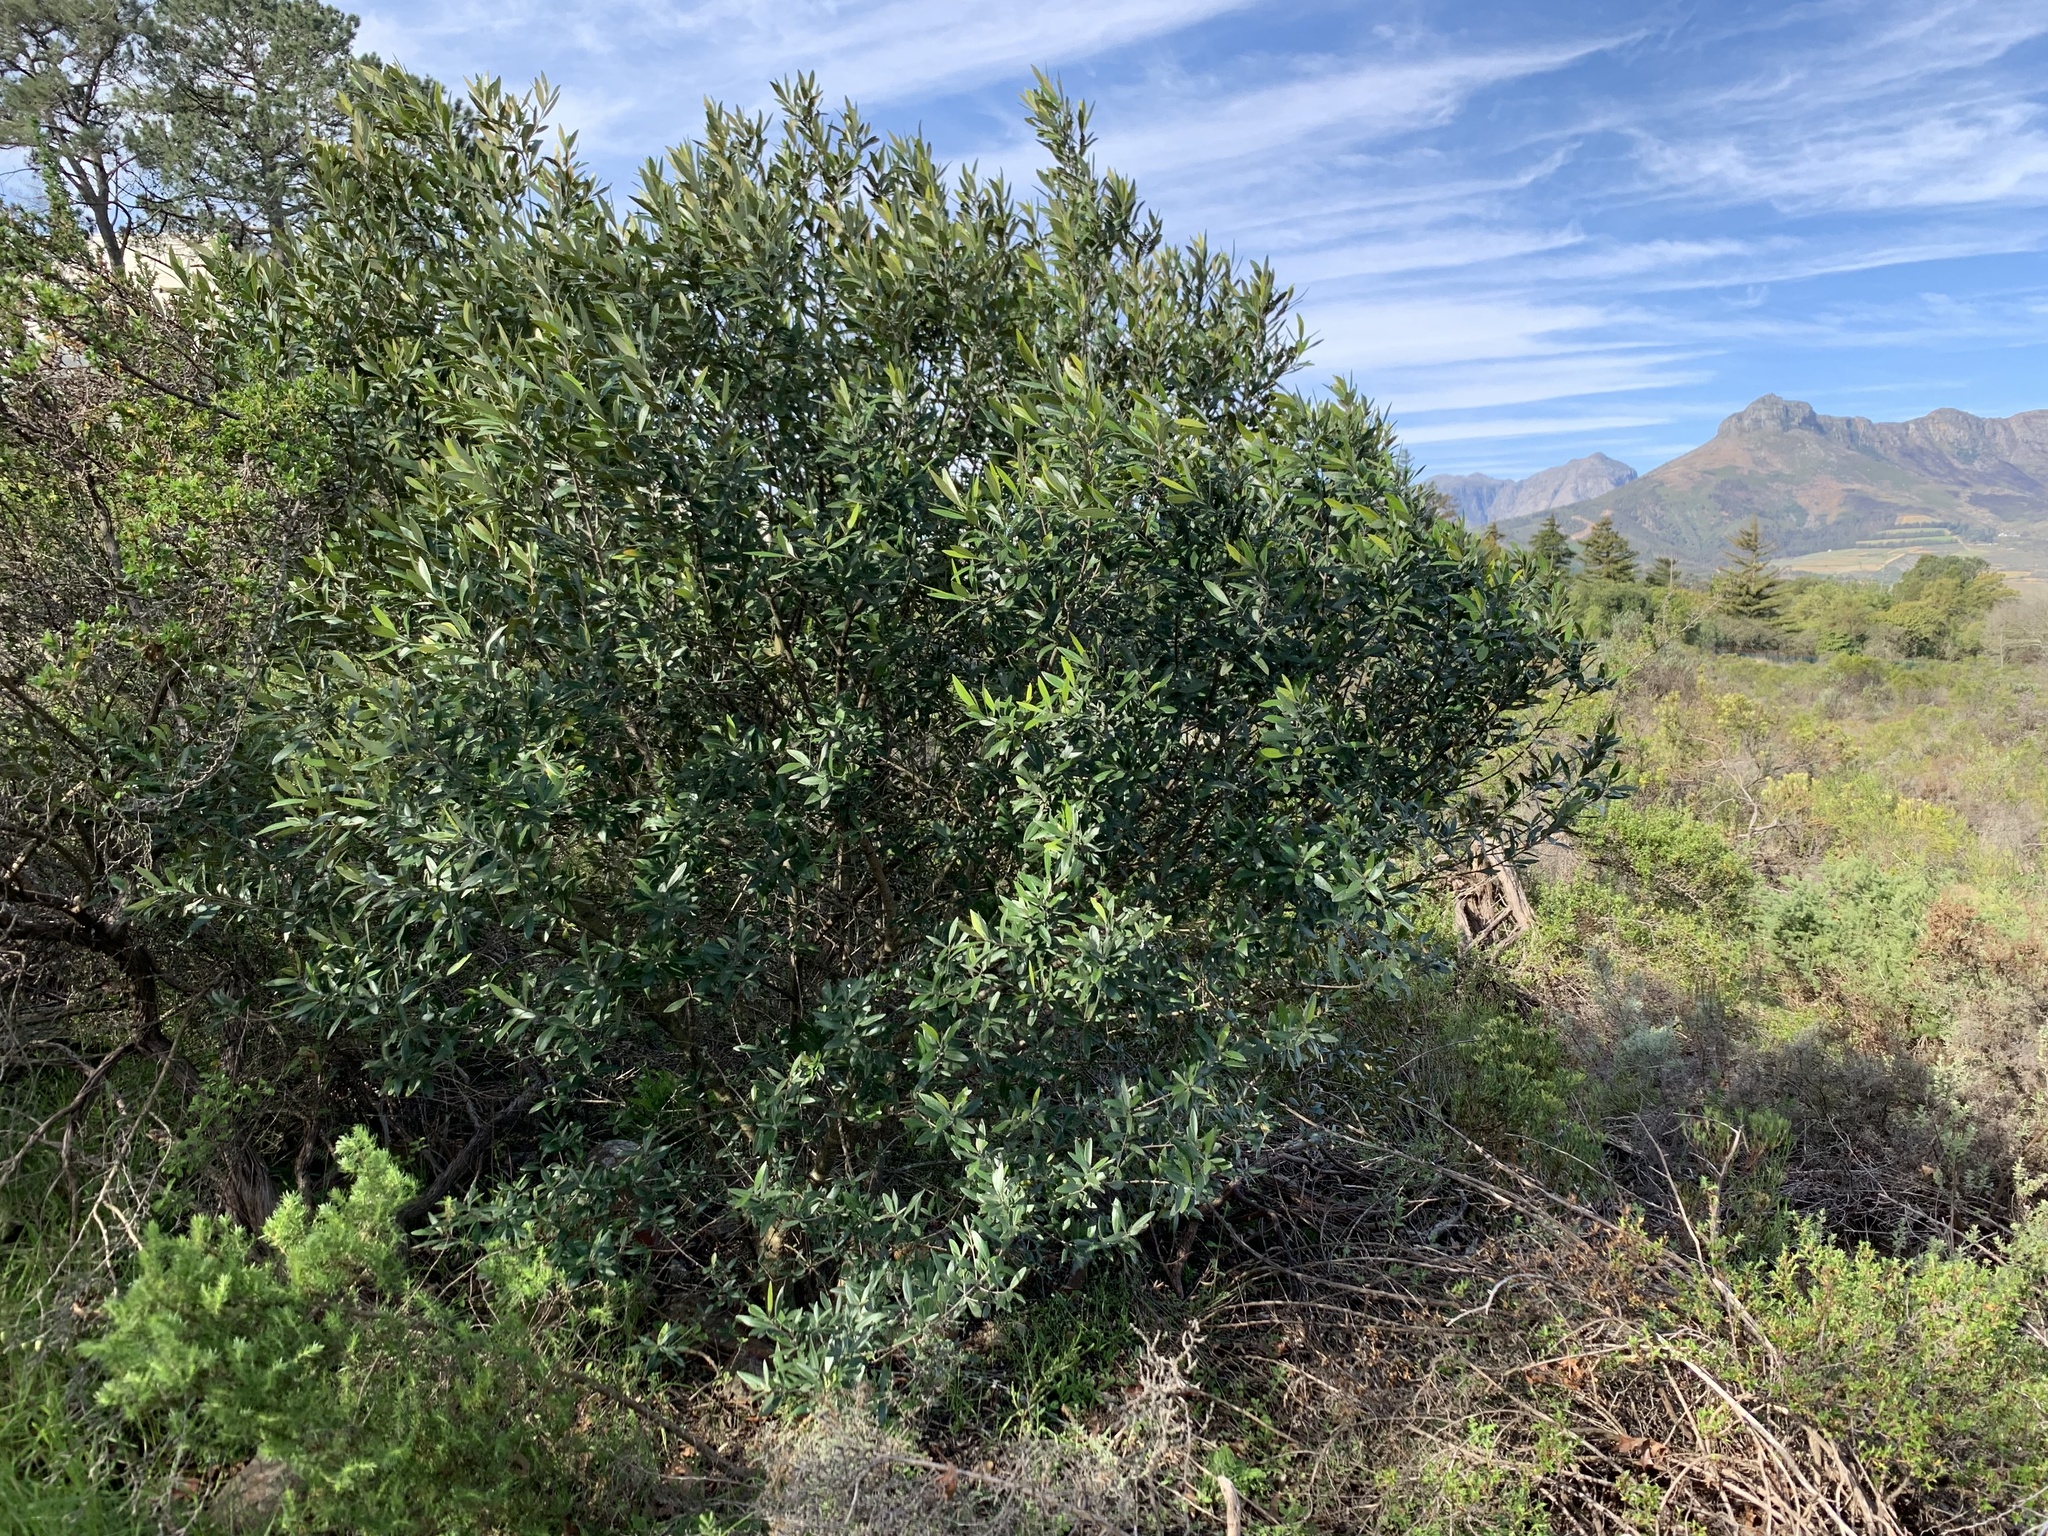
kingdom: Plantae
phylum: Tracheophyta
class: Magnoliopsida
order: Lamiales
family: Oleaceae
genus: Olea
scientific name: Olea europaea
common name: Olive
